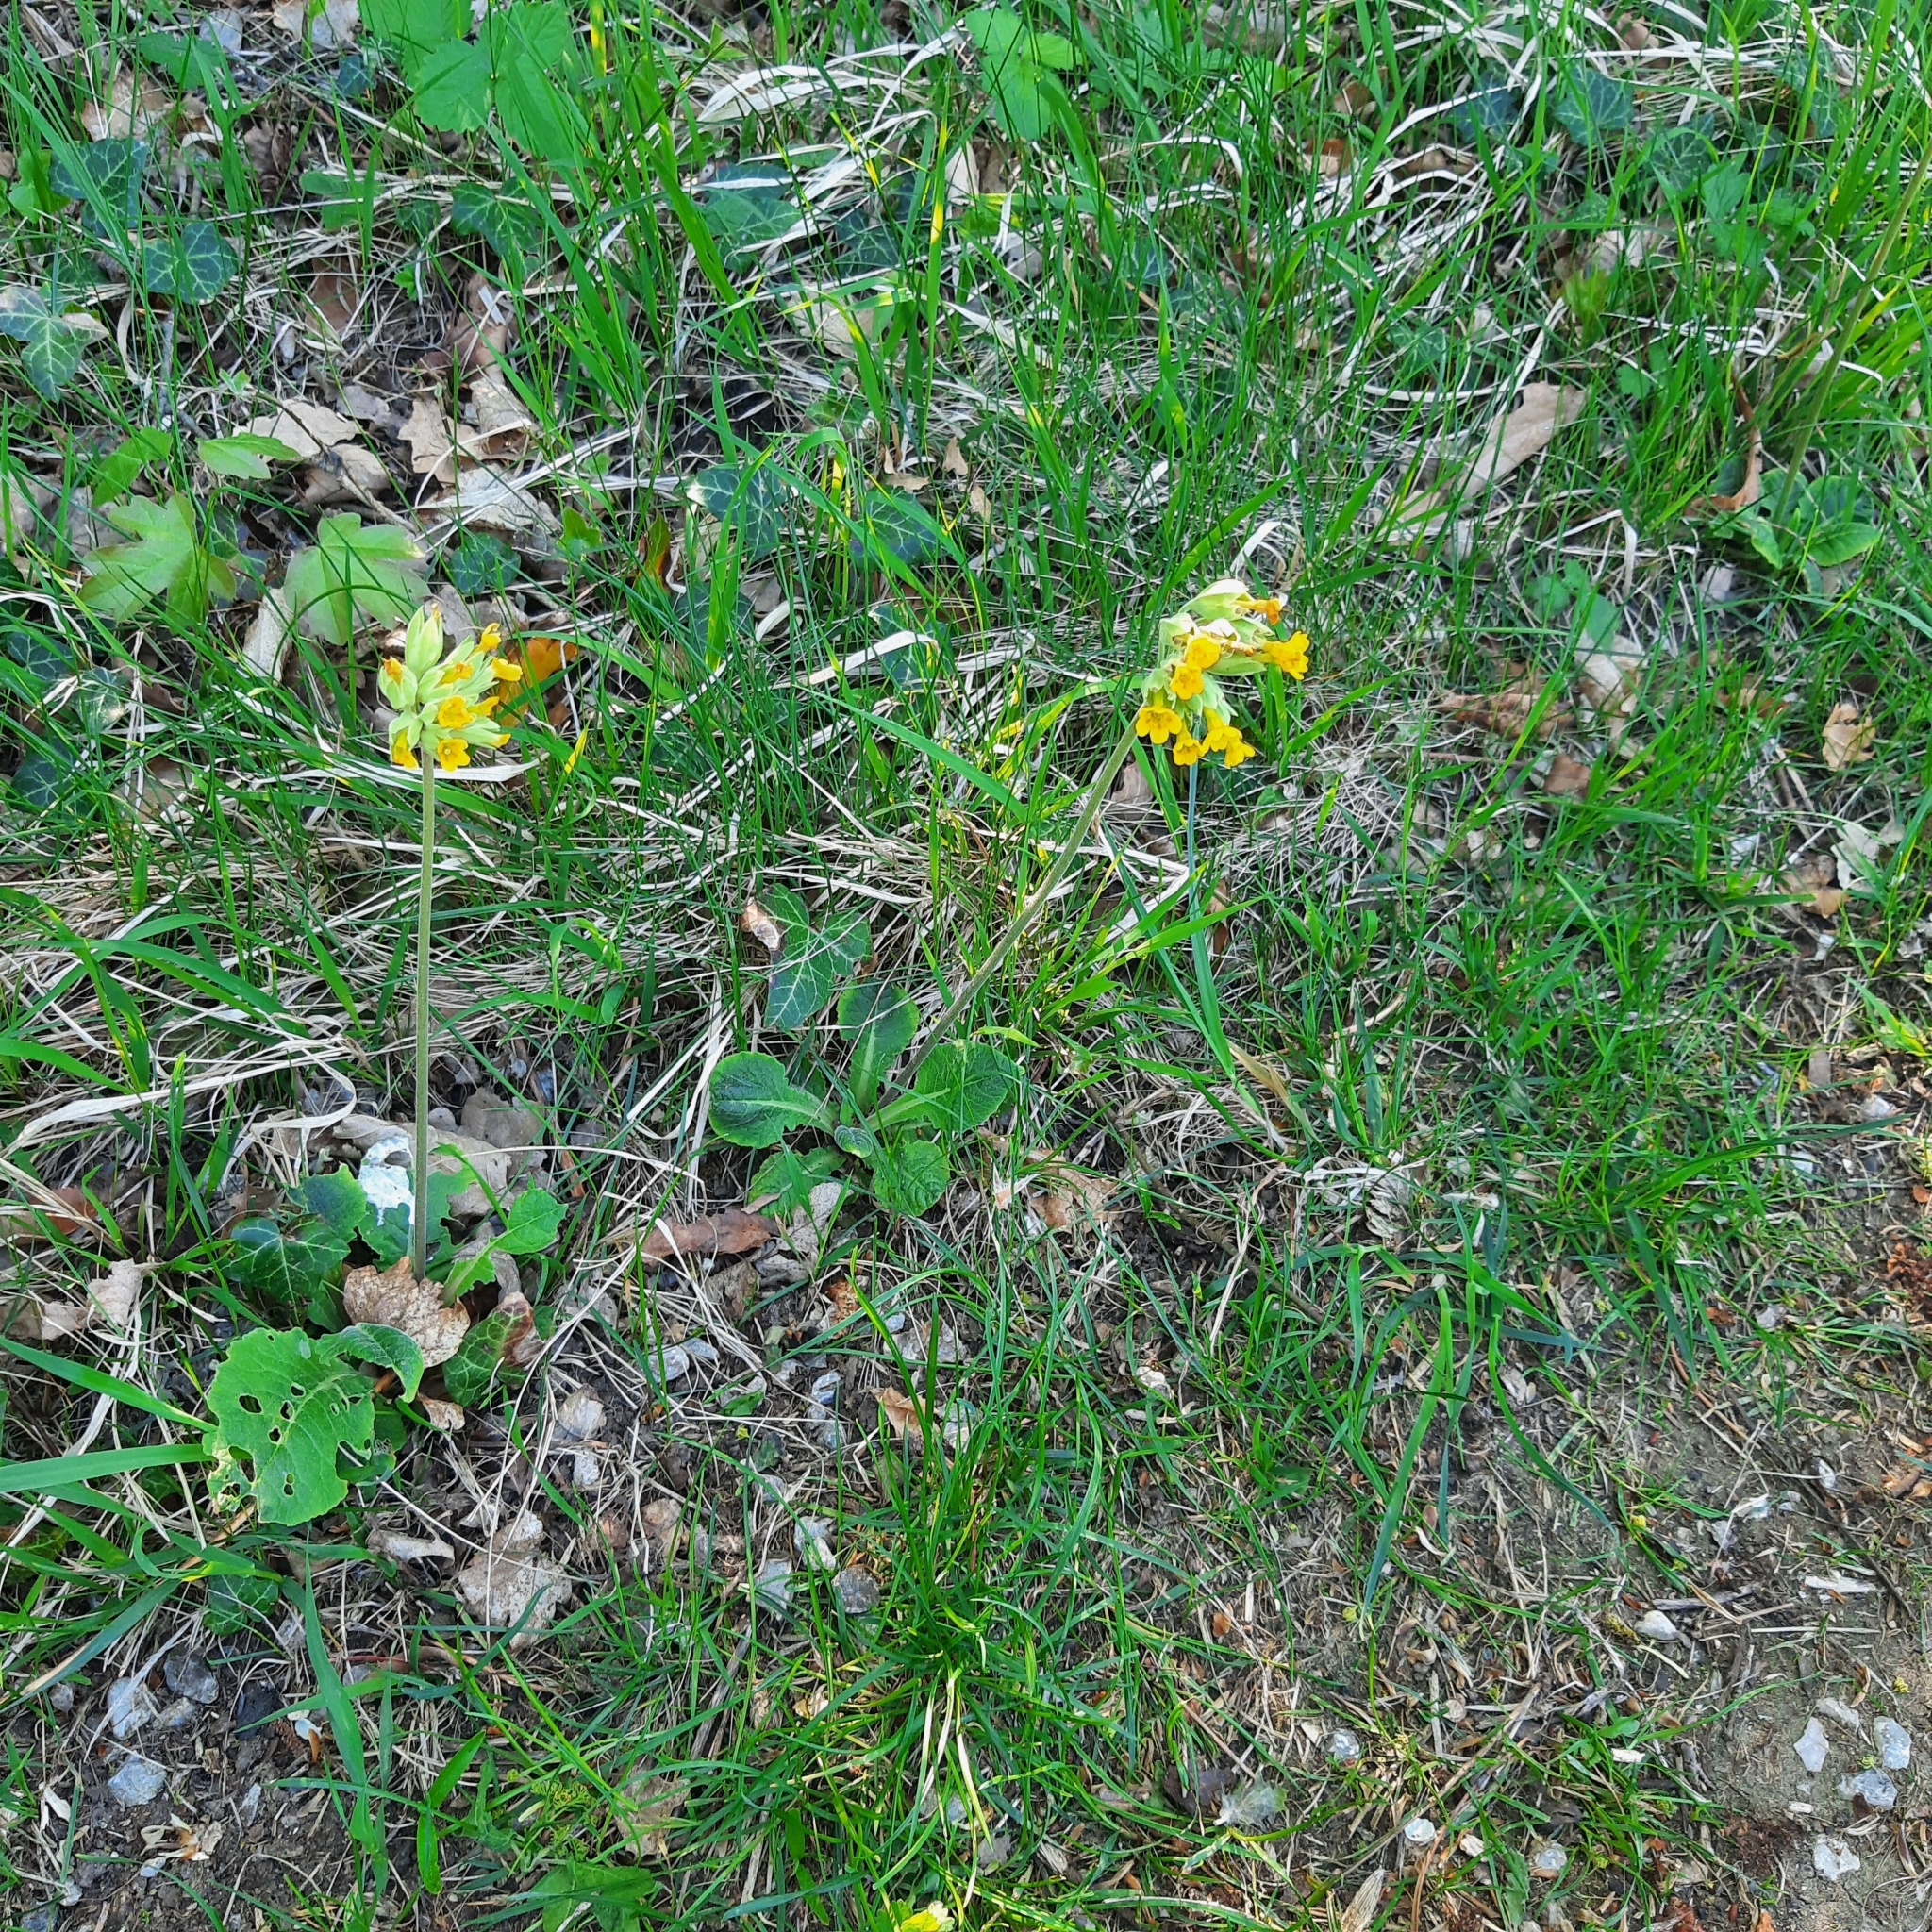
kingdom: Plantae
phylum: Tracheophyta
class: Magnoliopsida
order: Ericales
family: Primulaceae
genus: Primula
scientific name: Primula veris
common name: Cowslip
